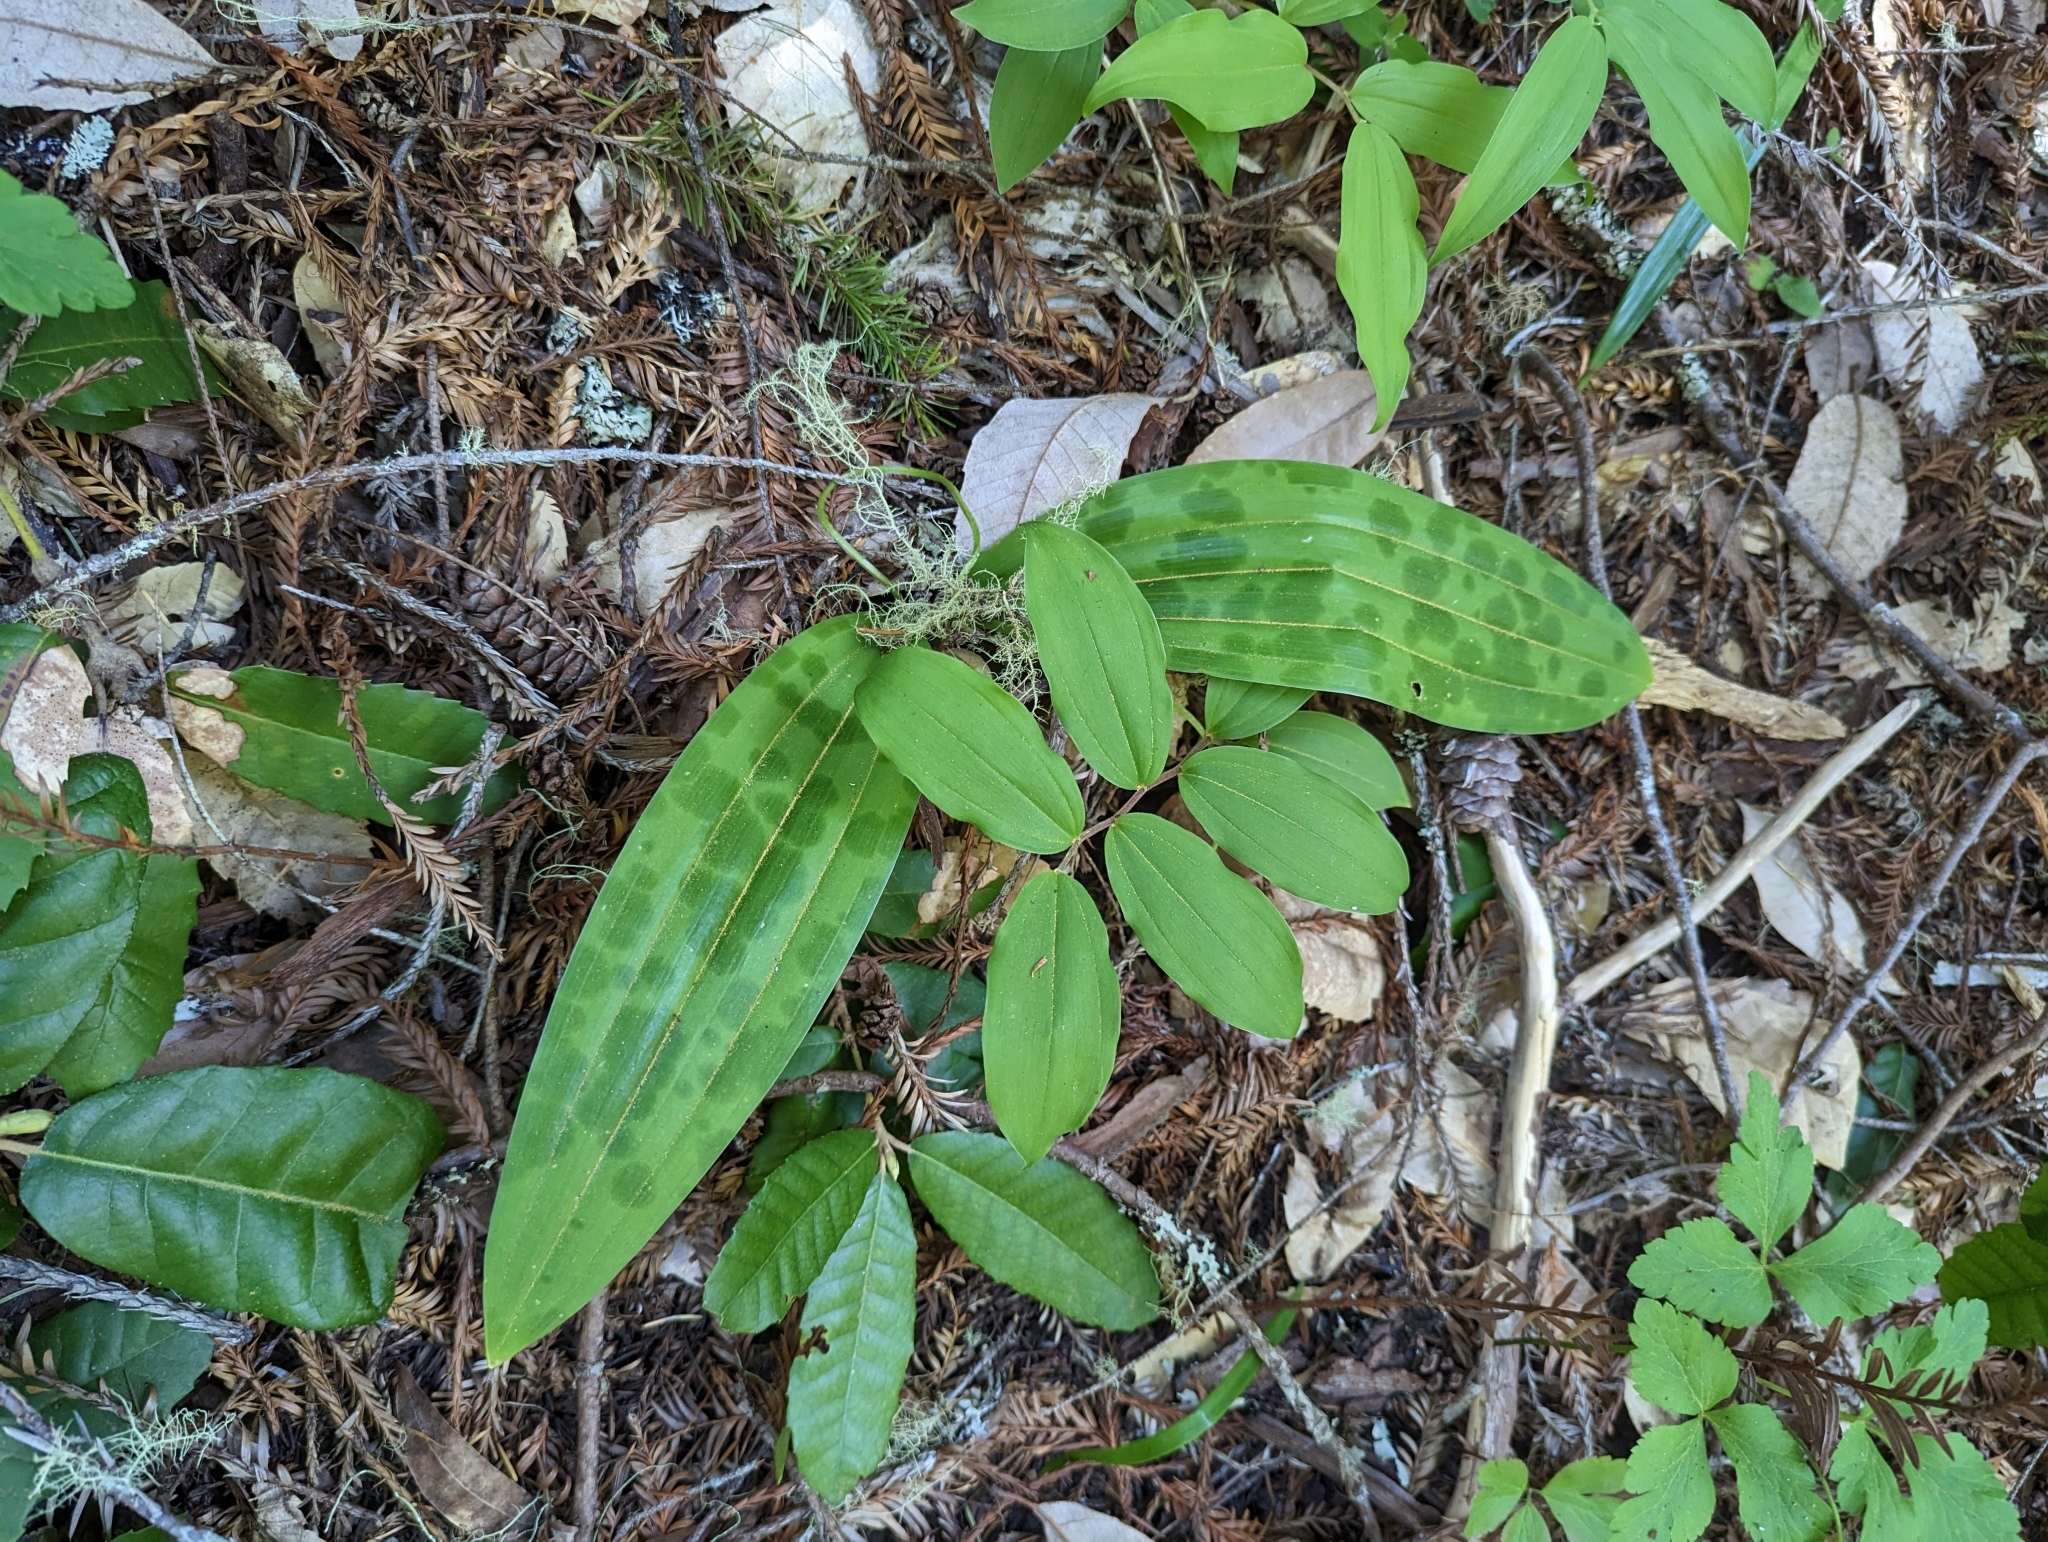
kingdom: Plantae
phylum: Tracheophyta
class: Liliopsida
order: Liliales
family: Liliaceae
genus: Scoliopus
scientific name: Scoliopus bigelovii
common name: Foetid adder's-tongue
